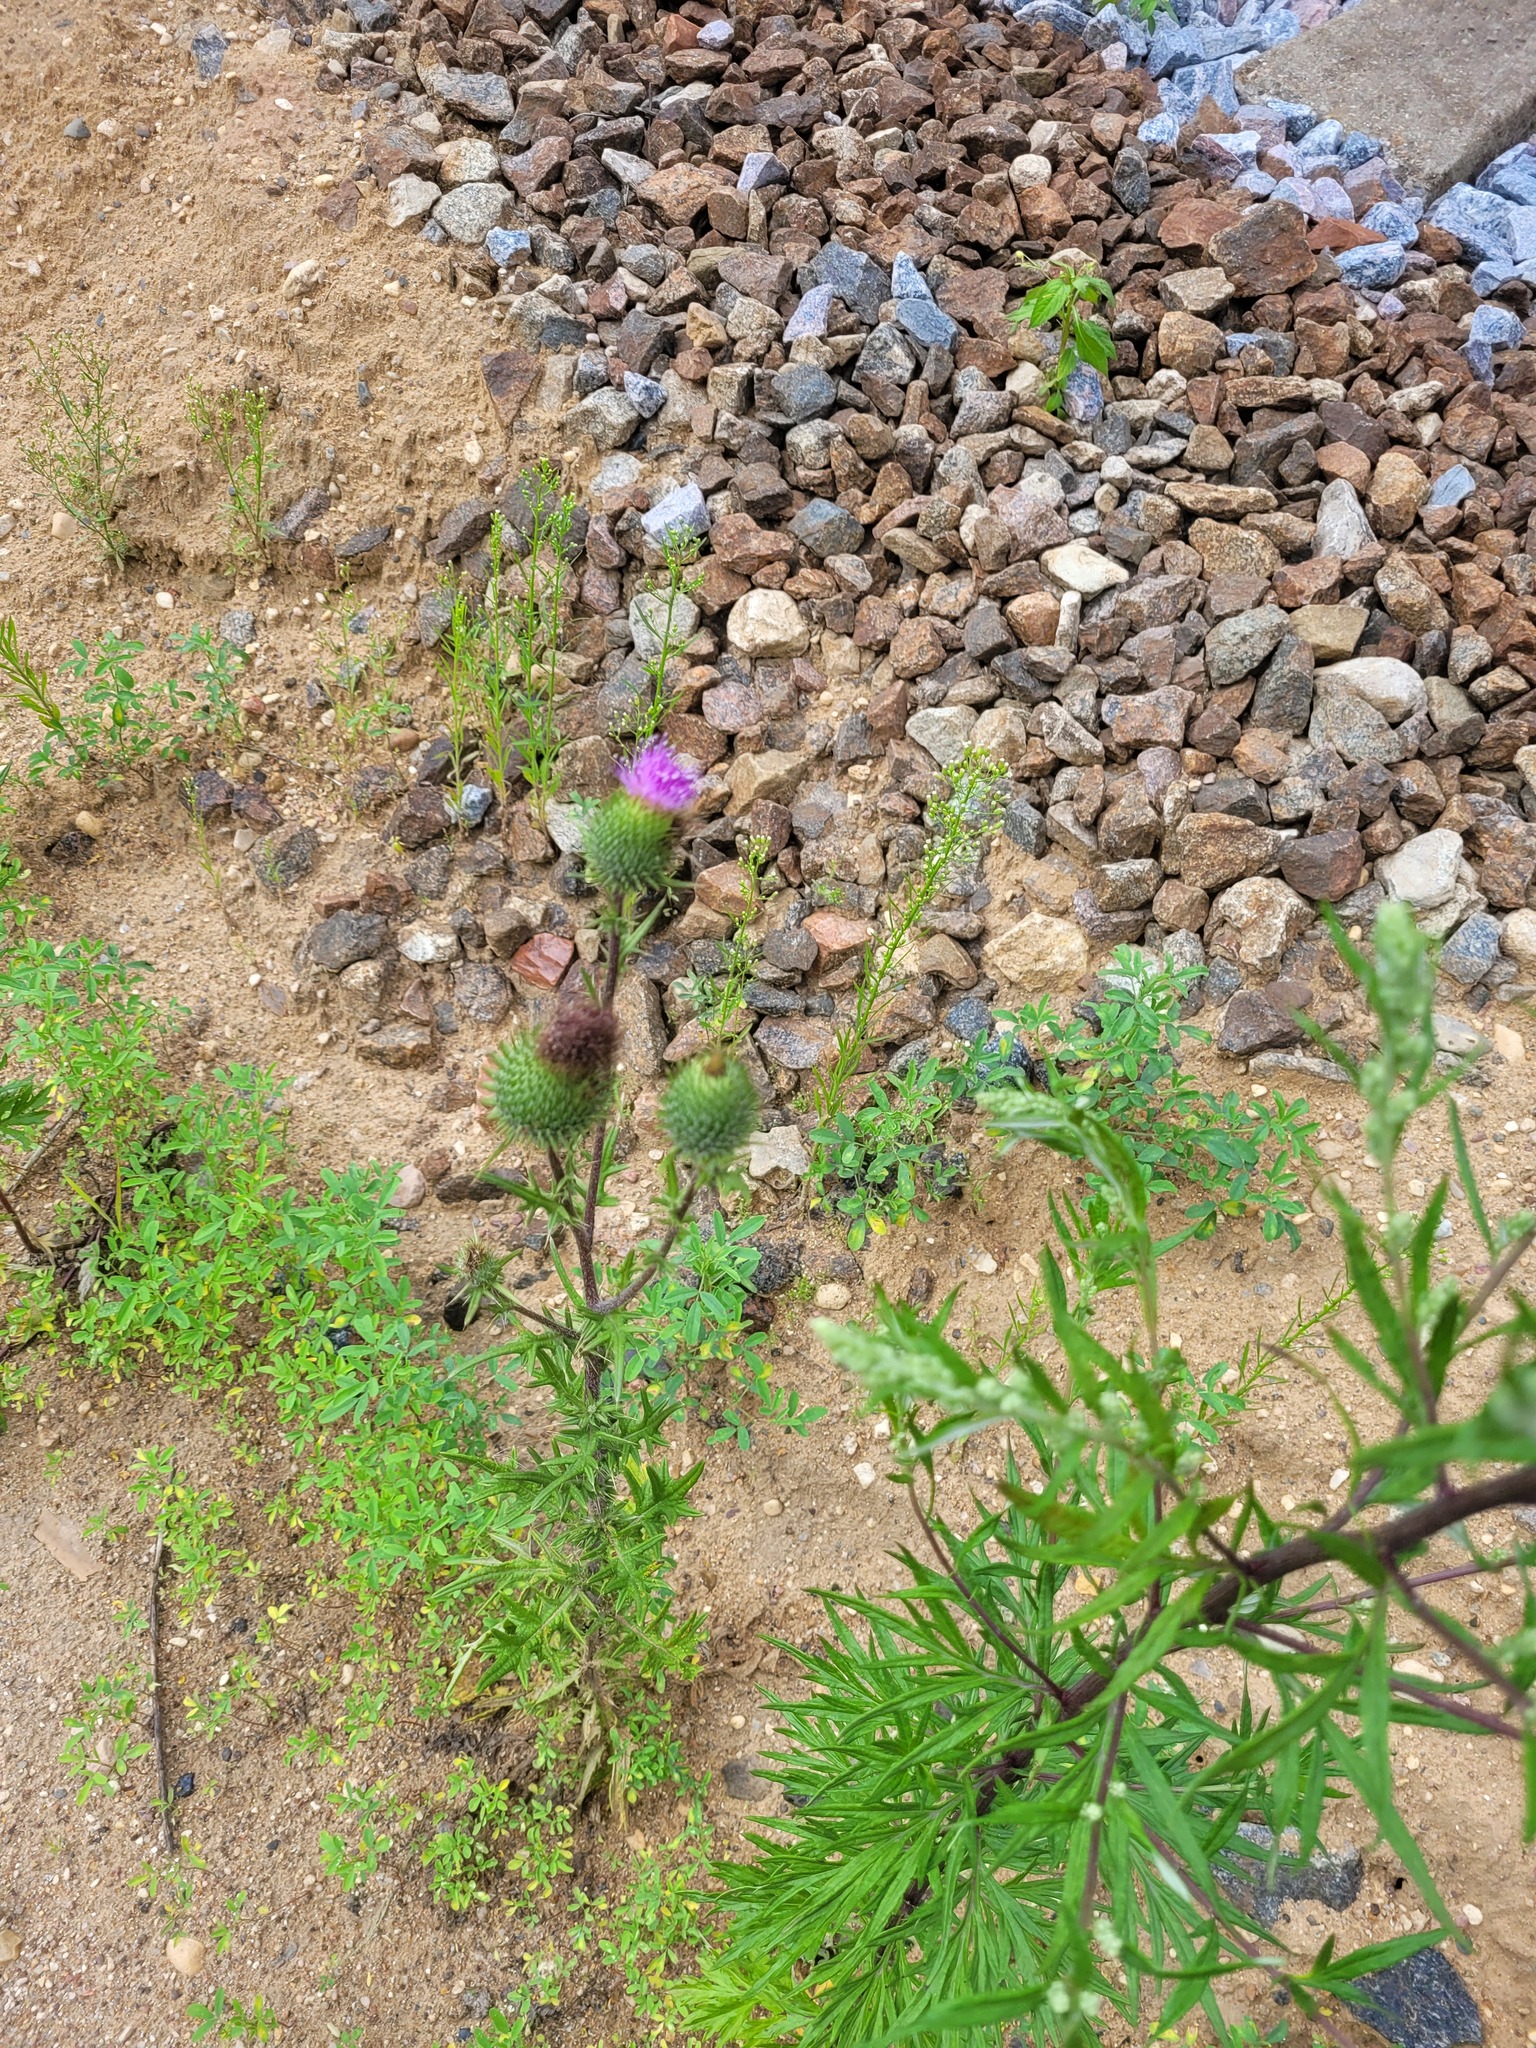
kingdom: Plantae
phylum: Tracheophyta
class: Magnoliopsida
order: Asterales
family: Asteraceae
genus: Cirsium
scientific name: Cirsium vulgare
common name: Bull thistle
